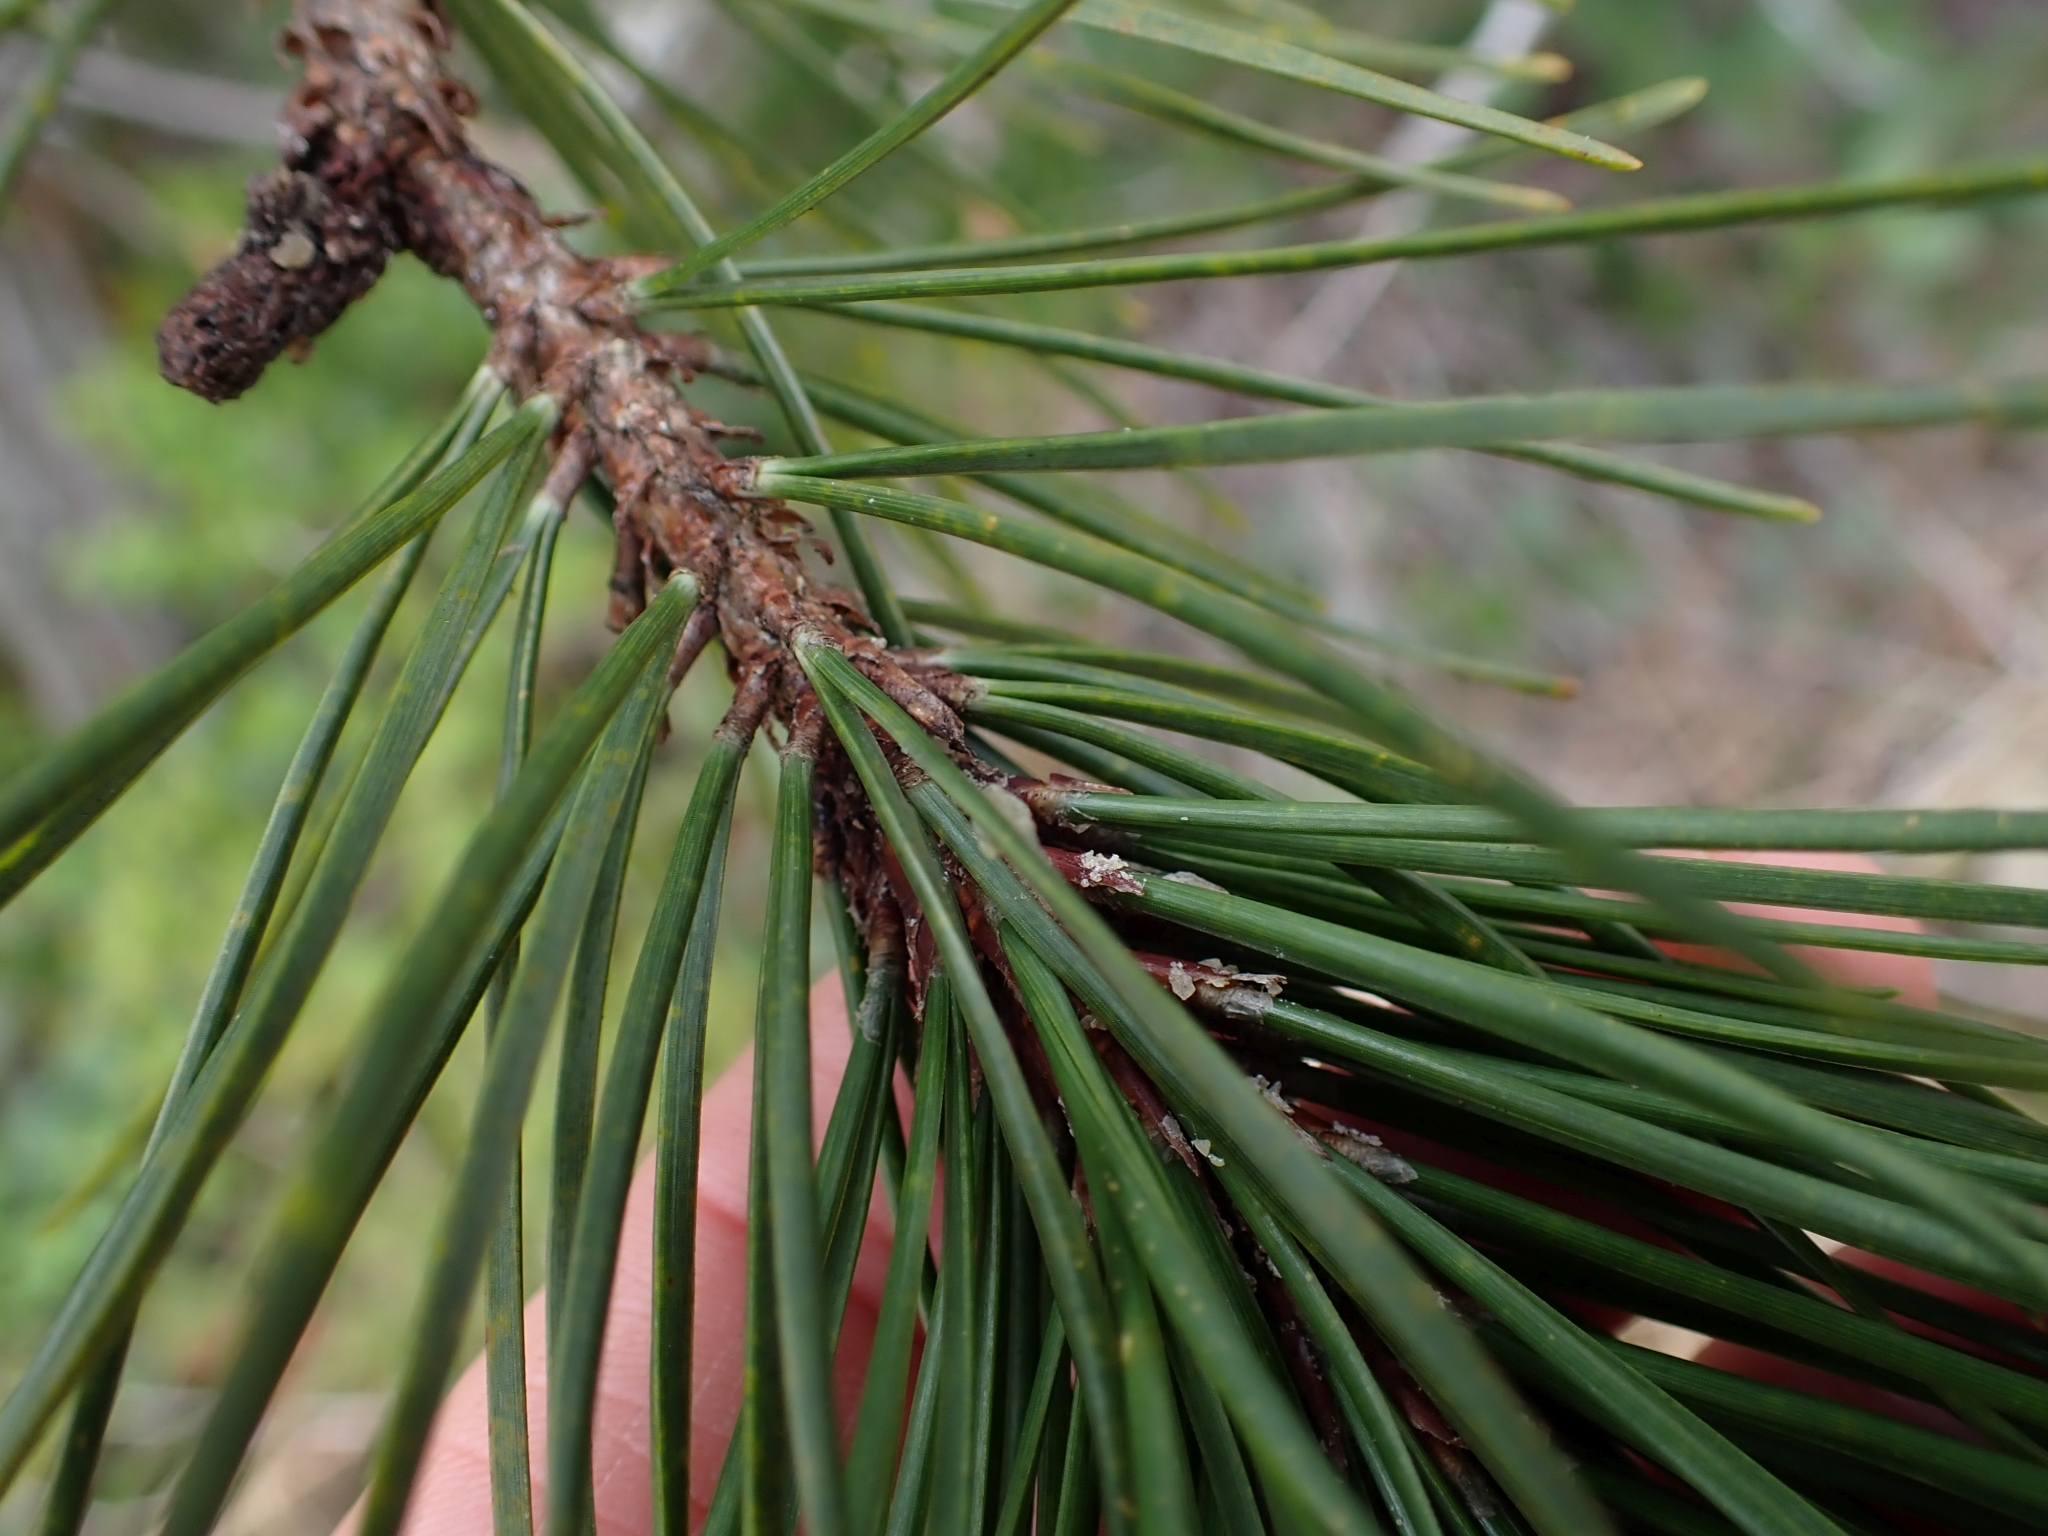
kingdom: Plantae
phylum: Tracheophyta
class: Pinopsida
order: Pinales
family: Pinaceae
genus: Pinus
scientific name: Pinus contorta
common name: Lodgepole pine
